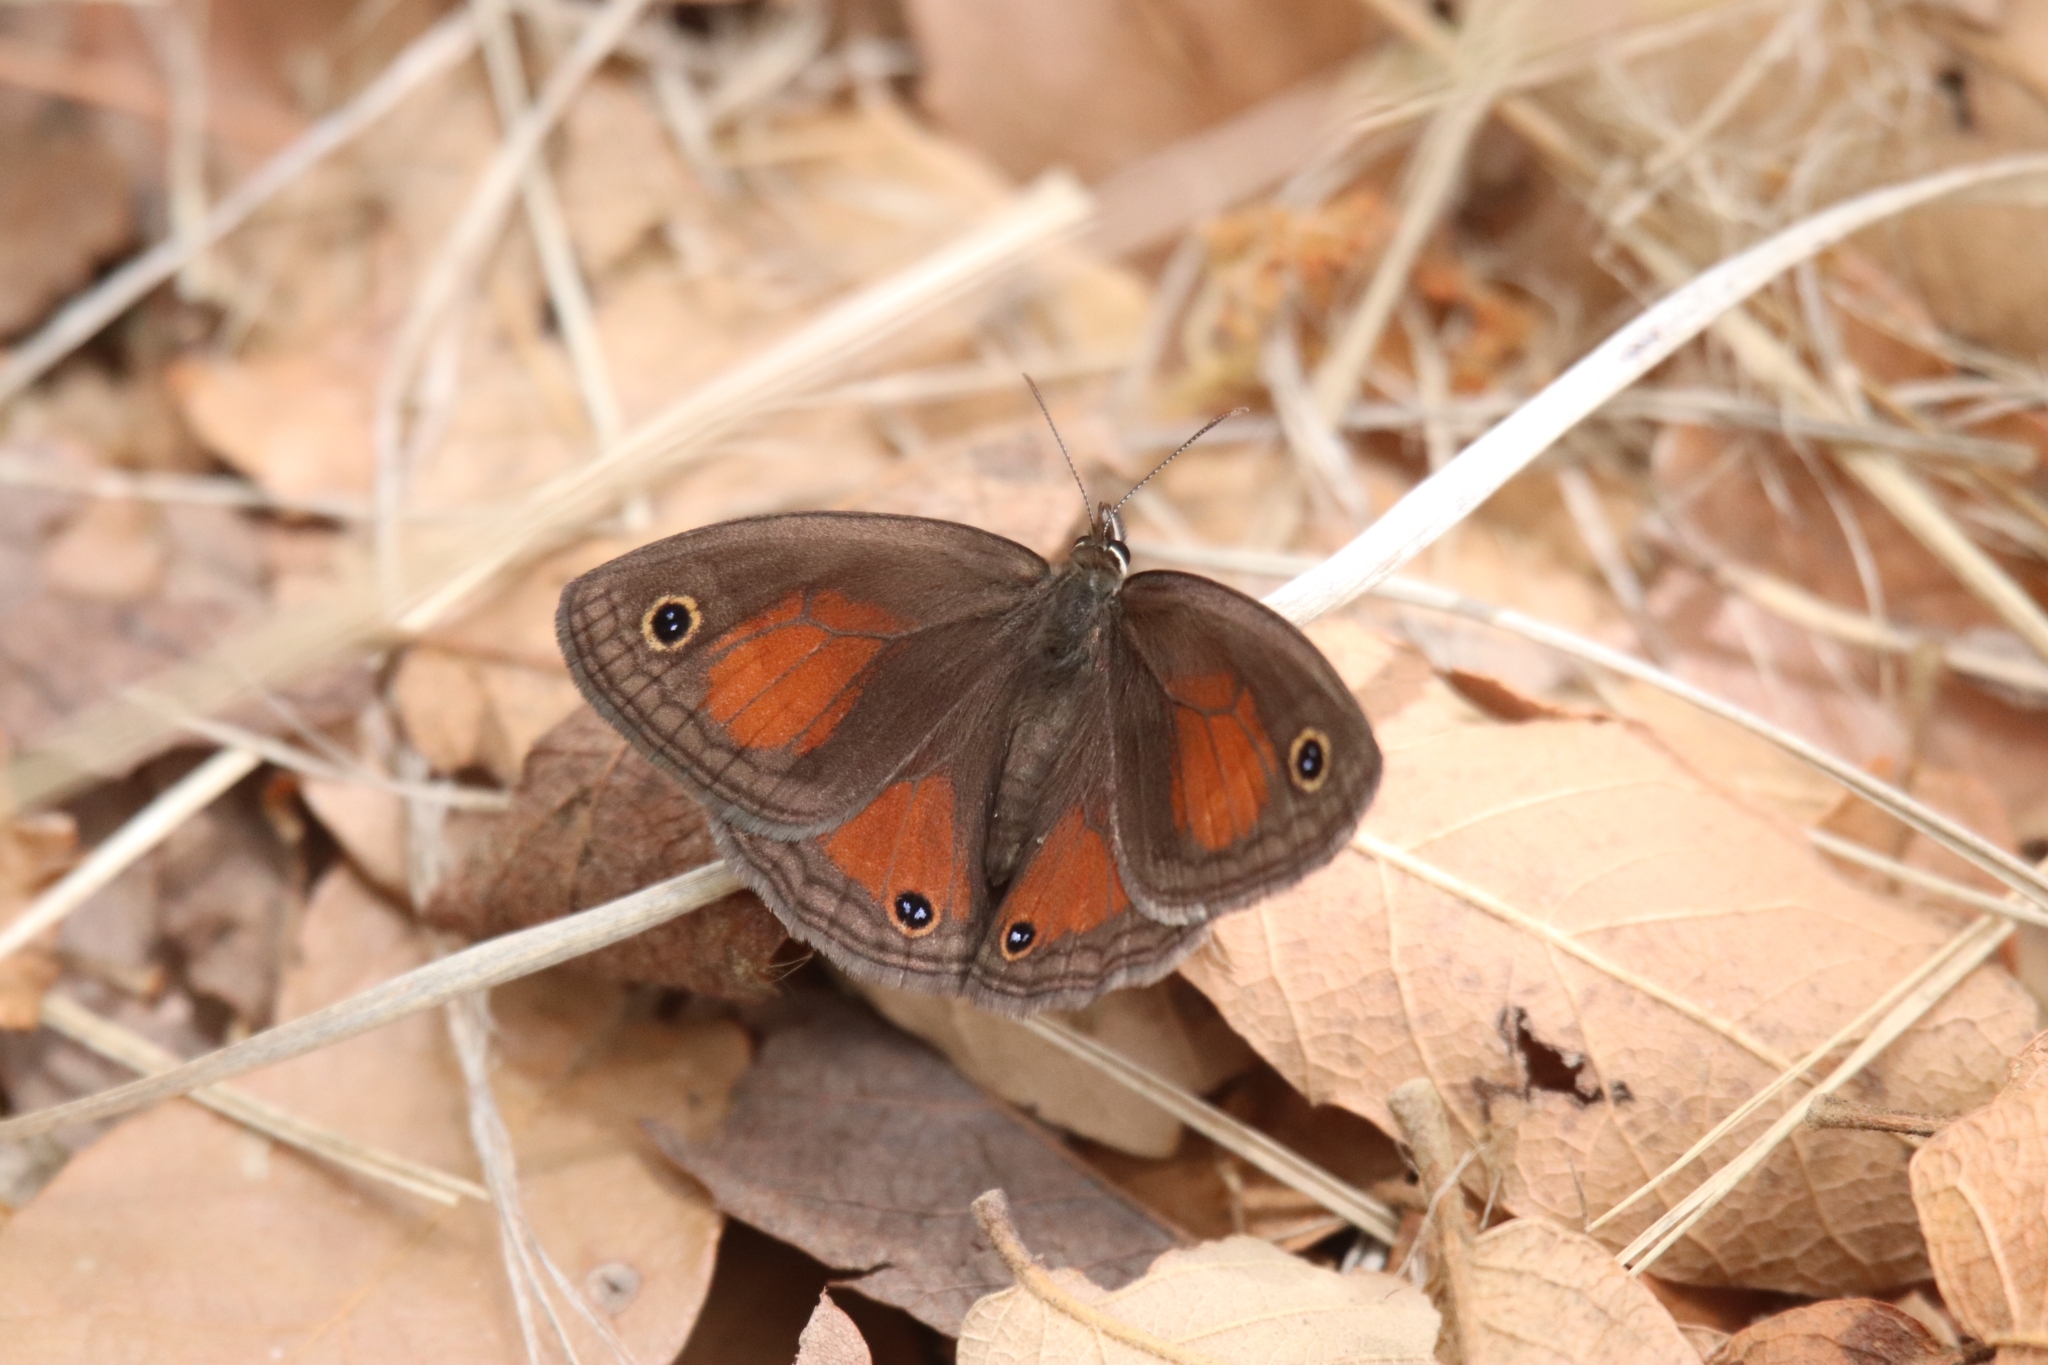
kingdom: Animalia
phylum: Arthropoda
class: Insecta
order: Lepidoptera
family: Nymphalidae
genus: Euptychia
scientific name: Euptychia
